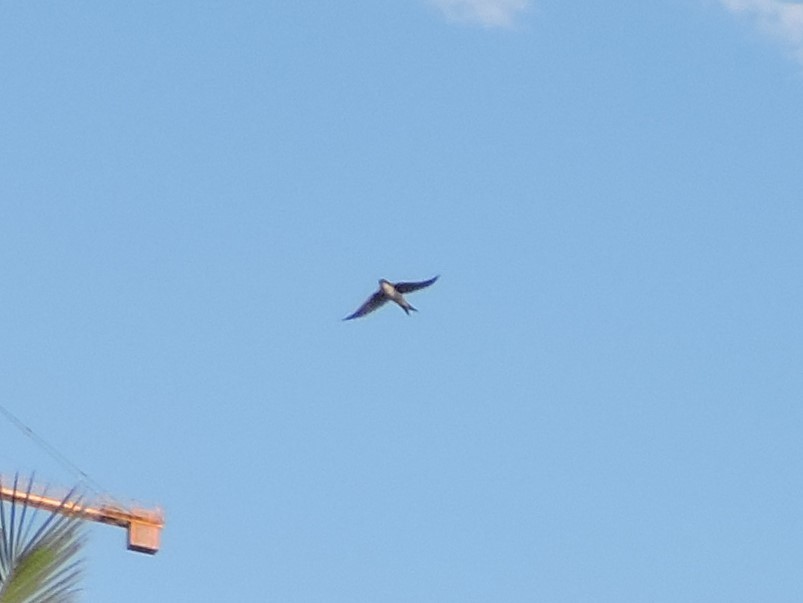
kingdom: Animalia
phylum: Chordata
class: Aves
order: Passeriformes
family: Hirundinidae
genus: Delichon
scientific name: Delichon urbicum
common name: Common house martin
